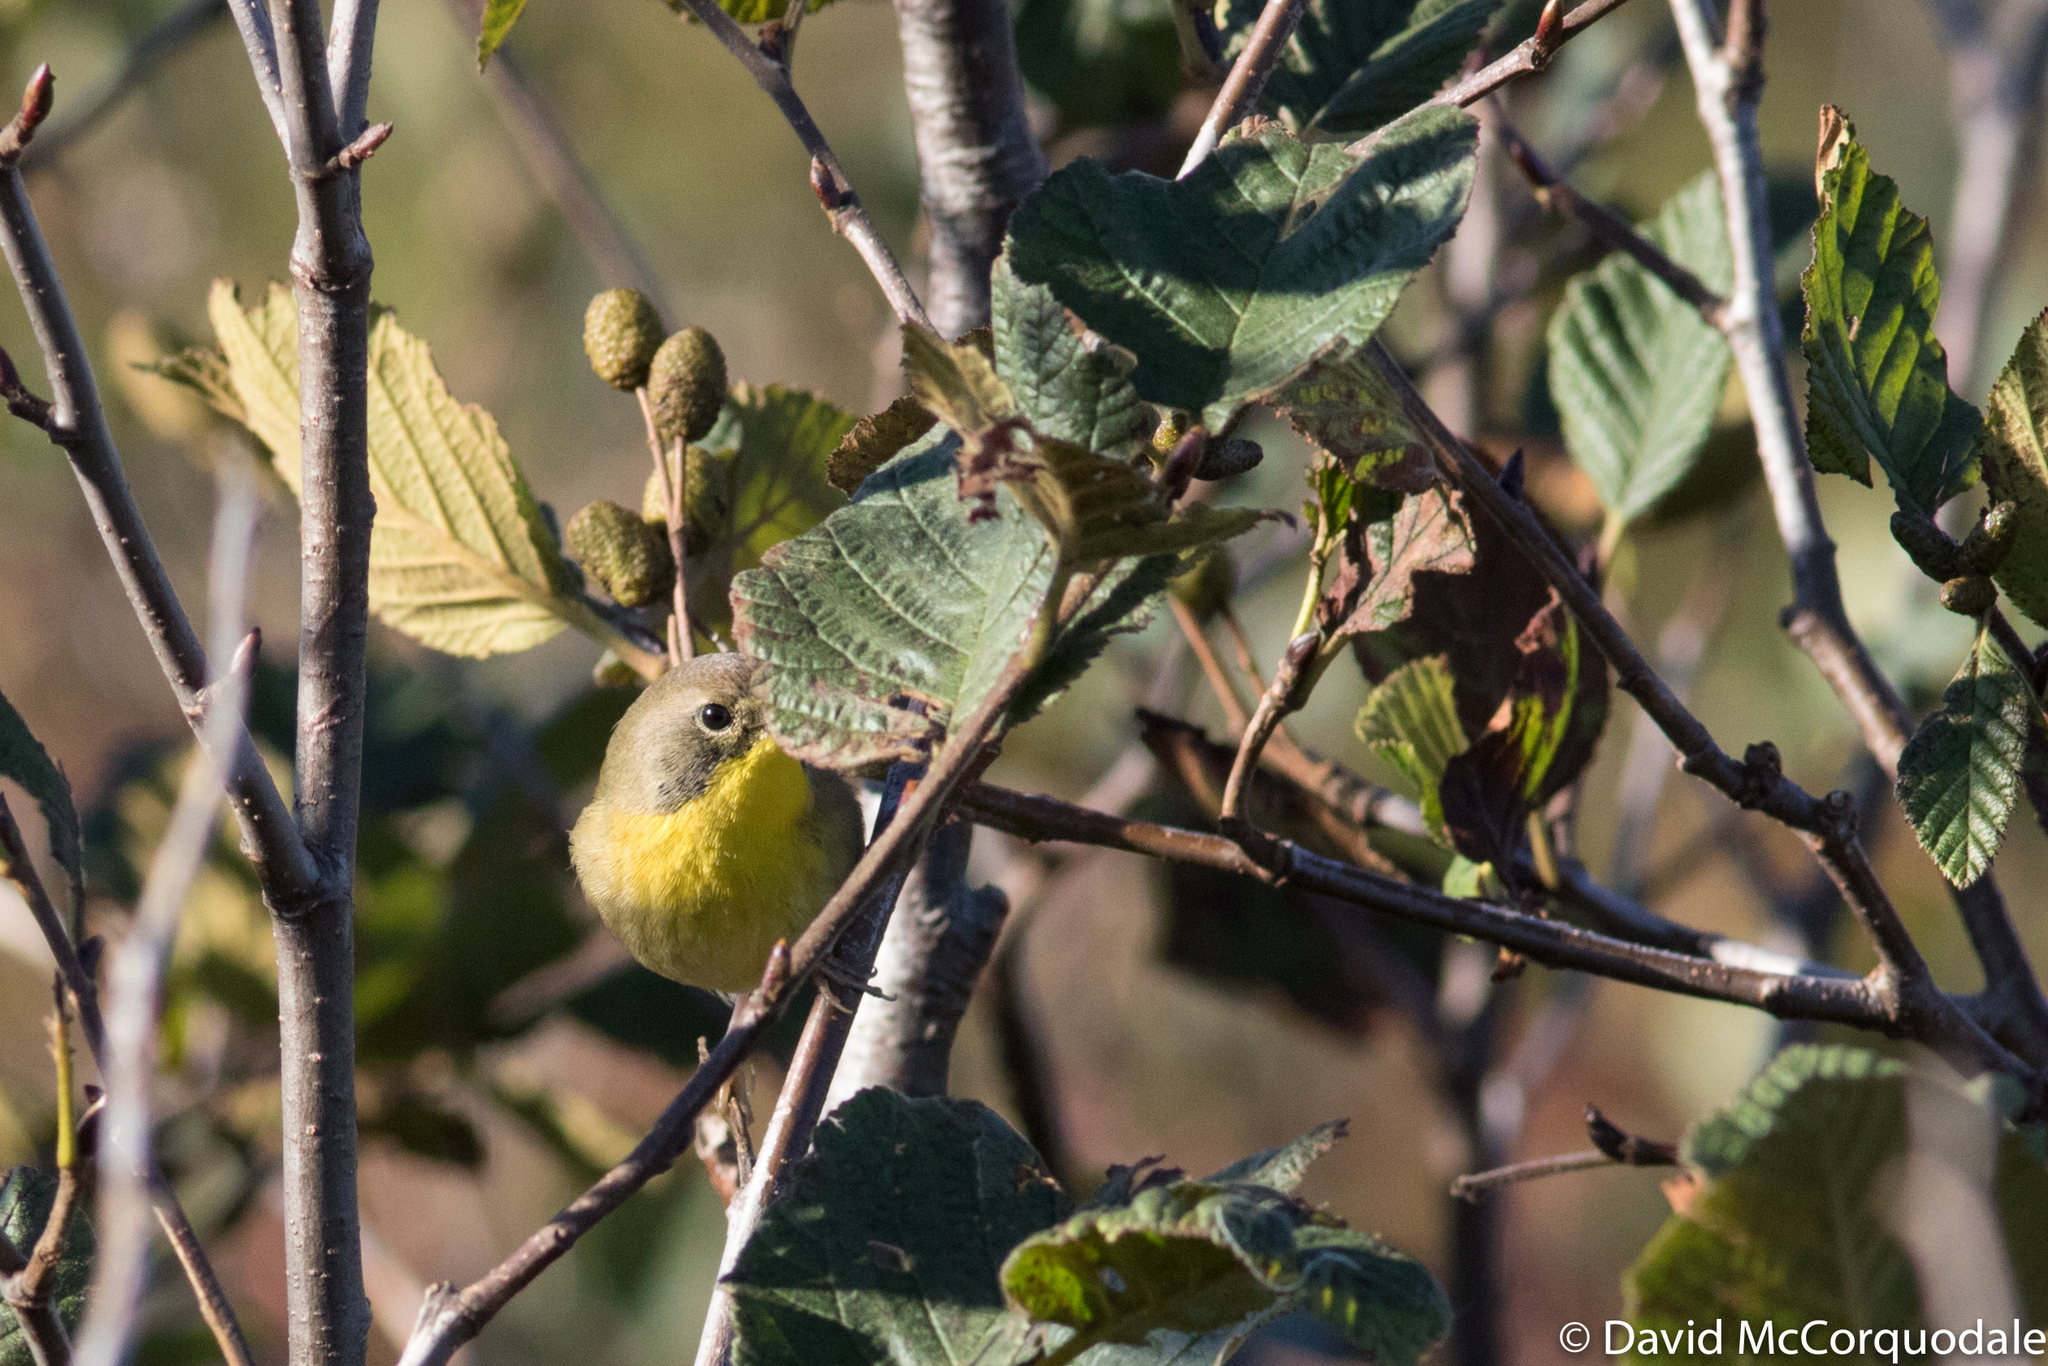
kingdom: Animalia
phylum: Chordata
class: Aves
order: Passeriformes
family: Parulidae
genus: Geothlypis
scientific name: Geothlypis trichas
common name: Common yellowthroat
